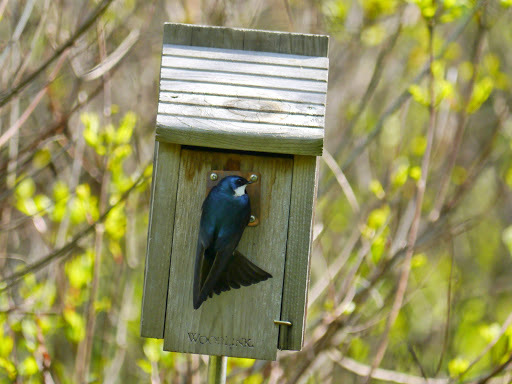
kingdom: Animalia
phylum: Chordata
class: Aves
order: Passeriformes
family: Hirundinidae
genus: Tachycineta
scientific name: Tachycineta bicolor
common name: Tree swallow
